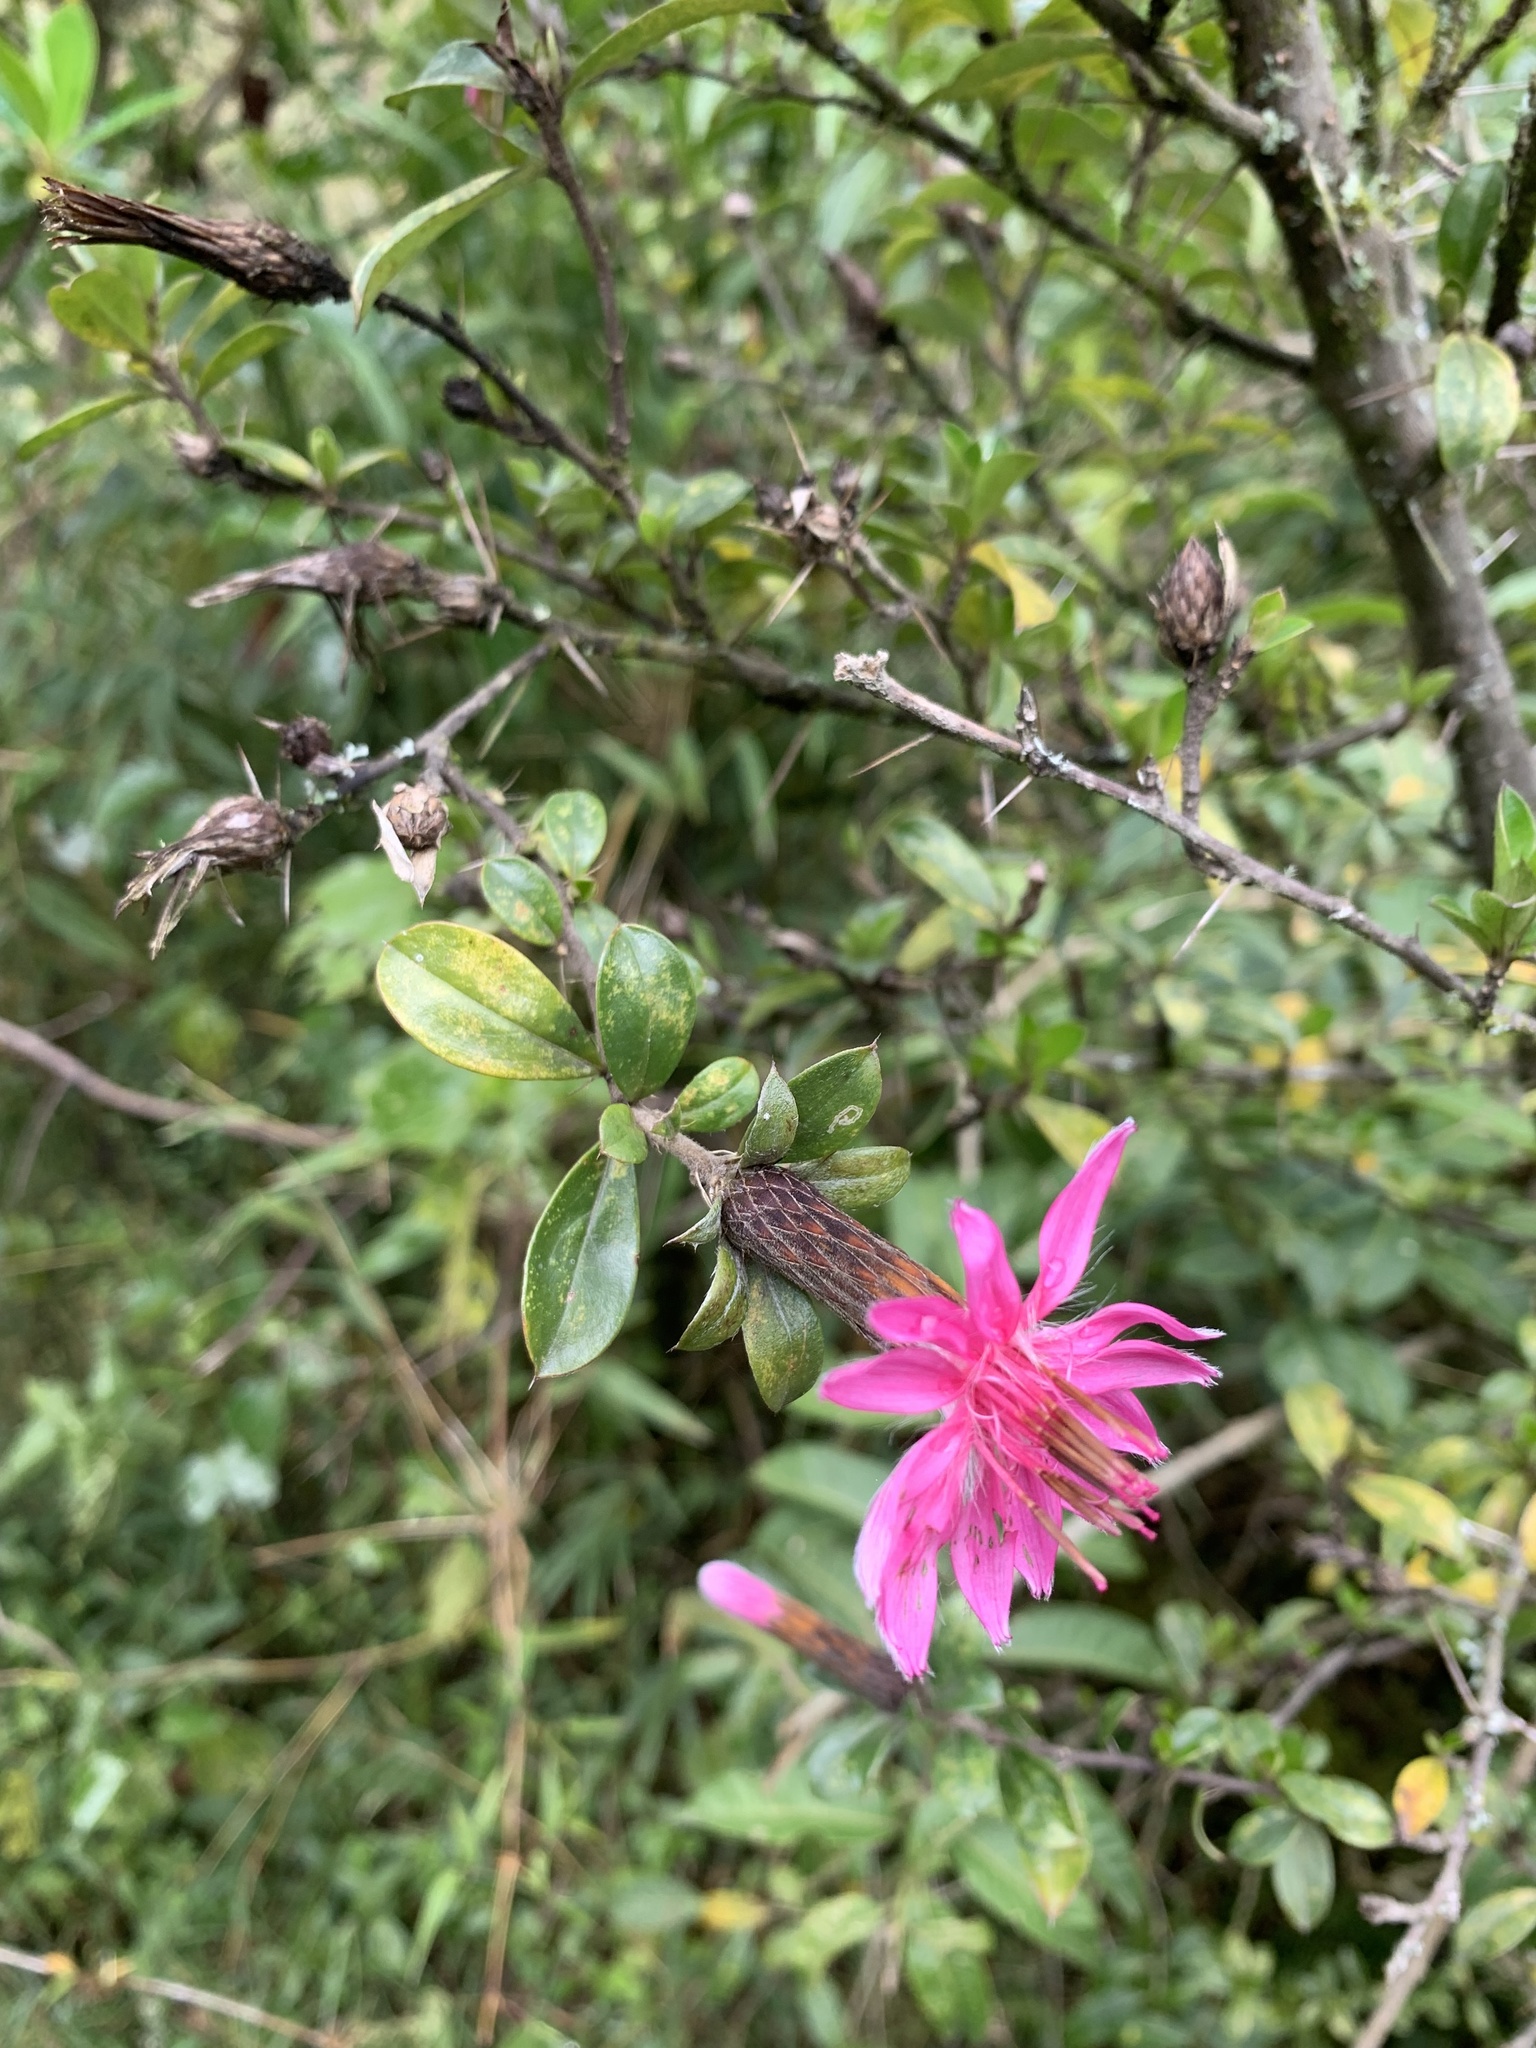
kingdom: Plantae
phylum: Tracheophyta
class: Magnoliopsida
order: Asterales
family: Asteraceae
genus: Barnadesia
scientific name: Barnadesia arborea
